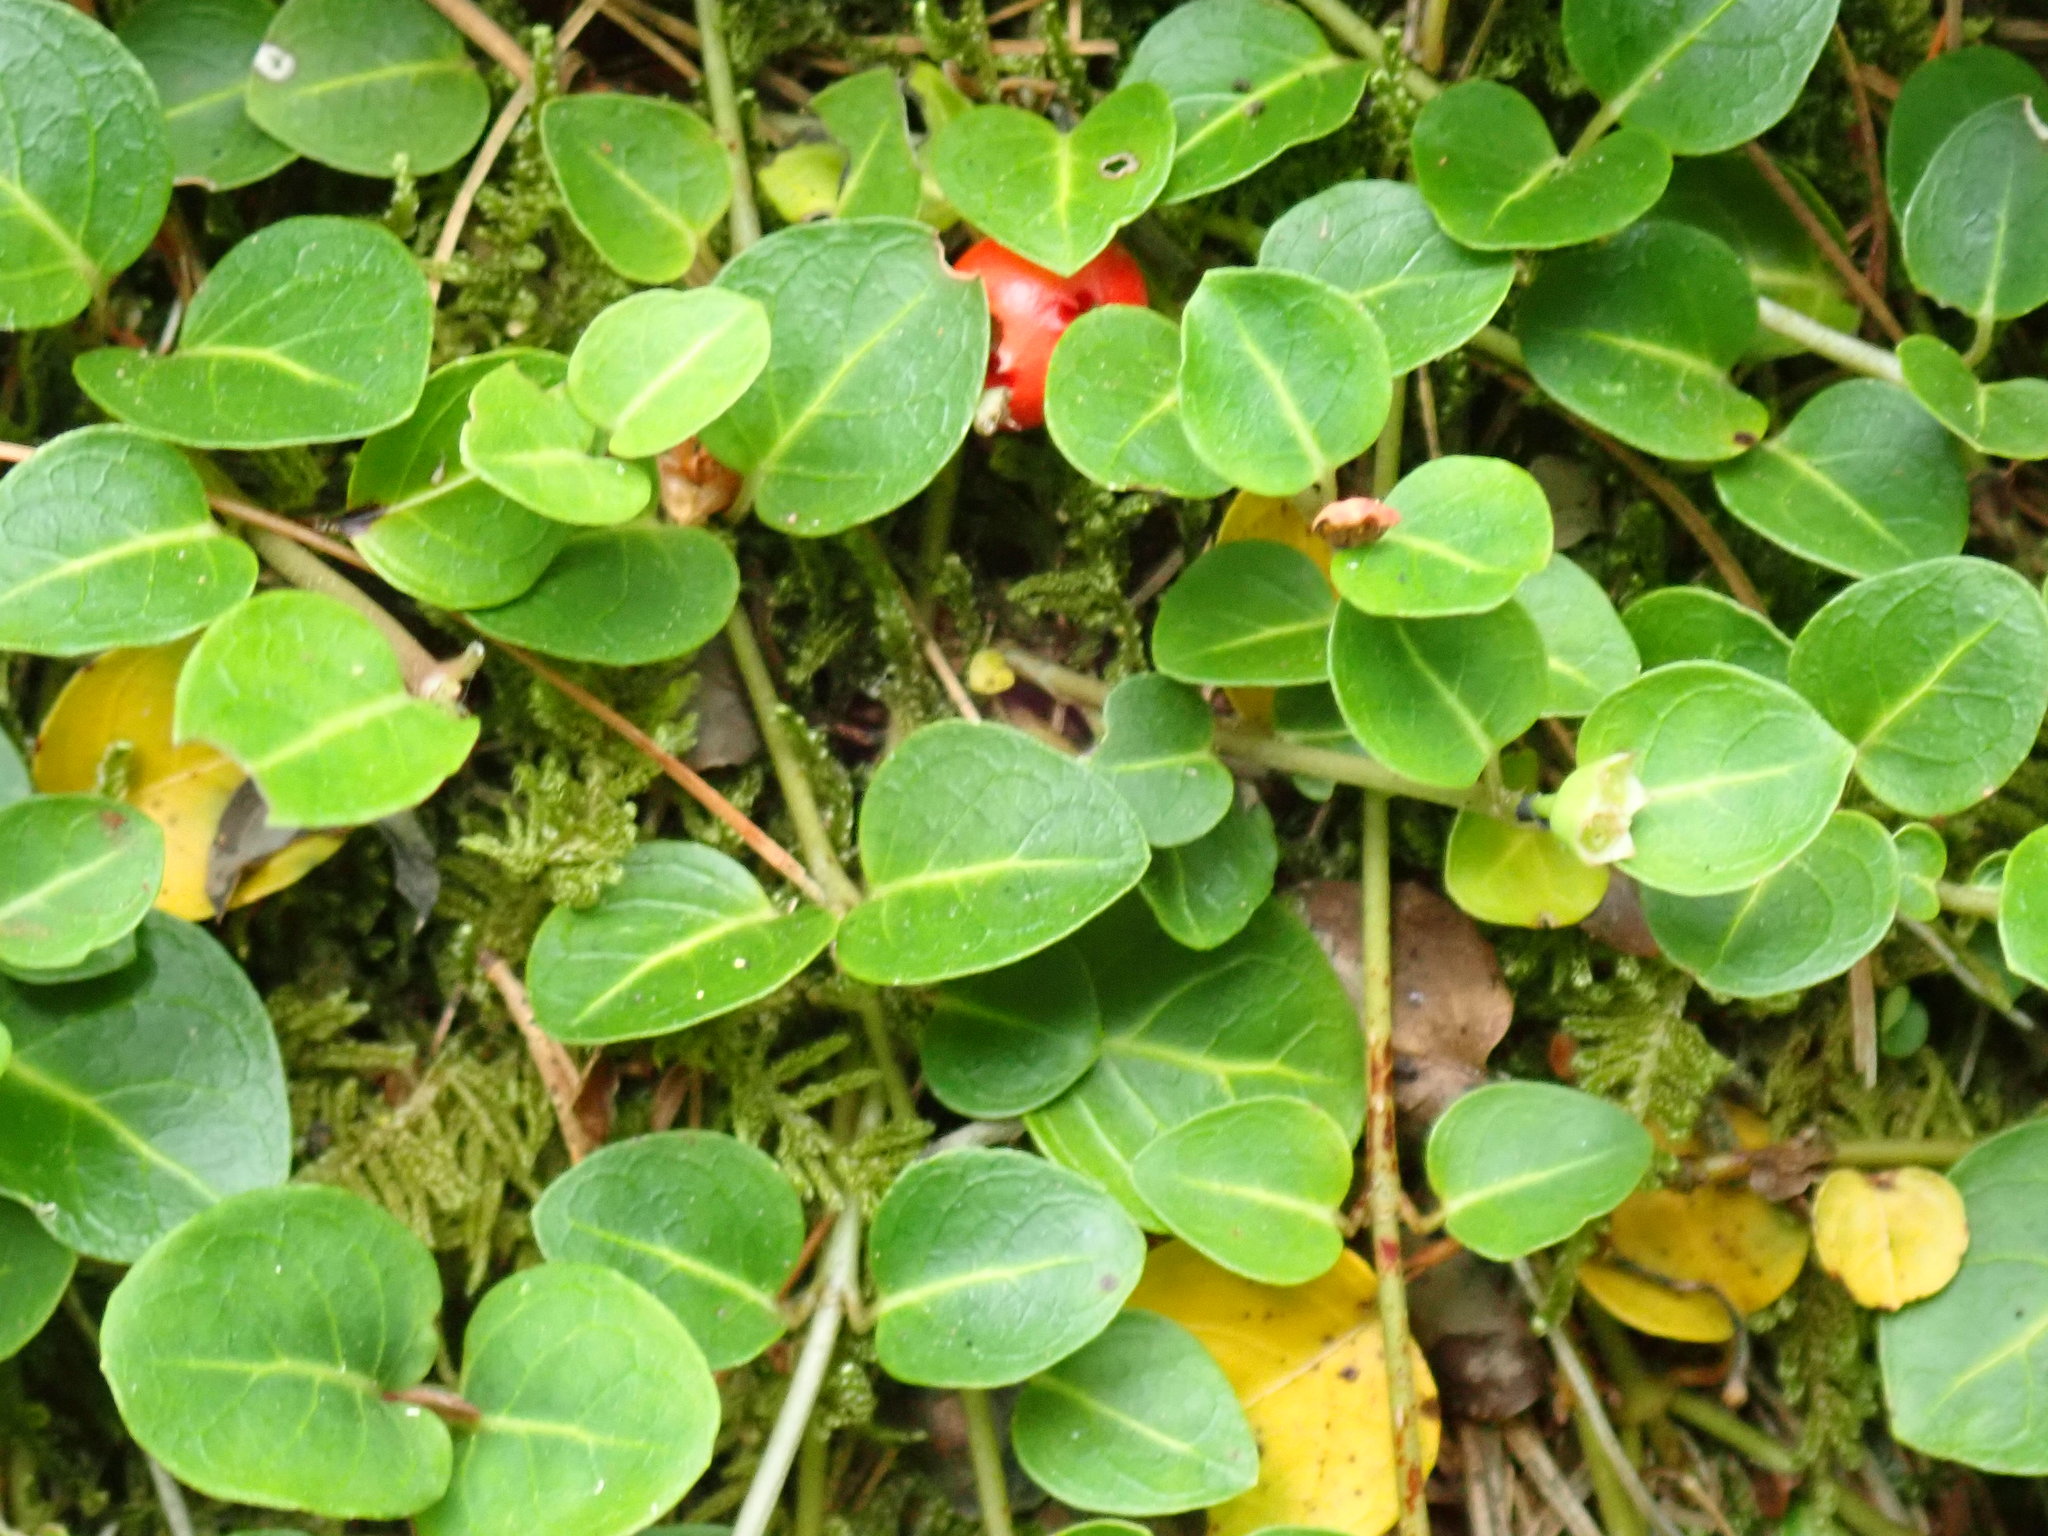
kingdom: Plantae
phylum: Tracheophyta
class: Magnoliopsida
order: Gentianales
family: Rubiaceae
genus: Mitchella
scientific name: Mitchella repens
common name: Partridge-berry
